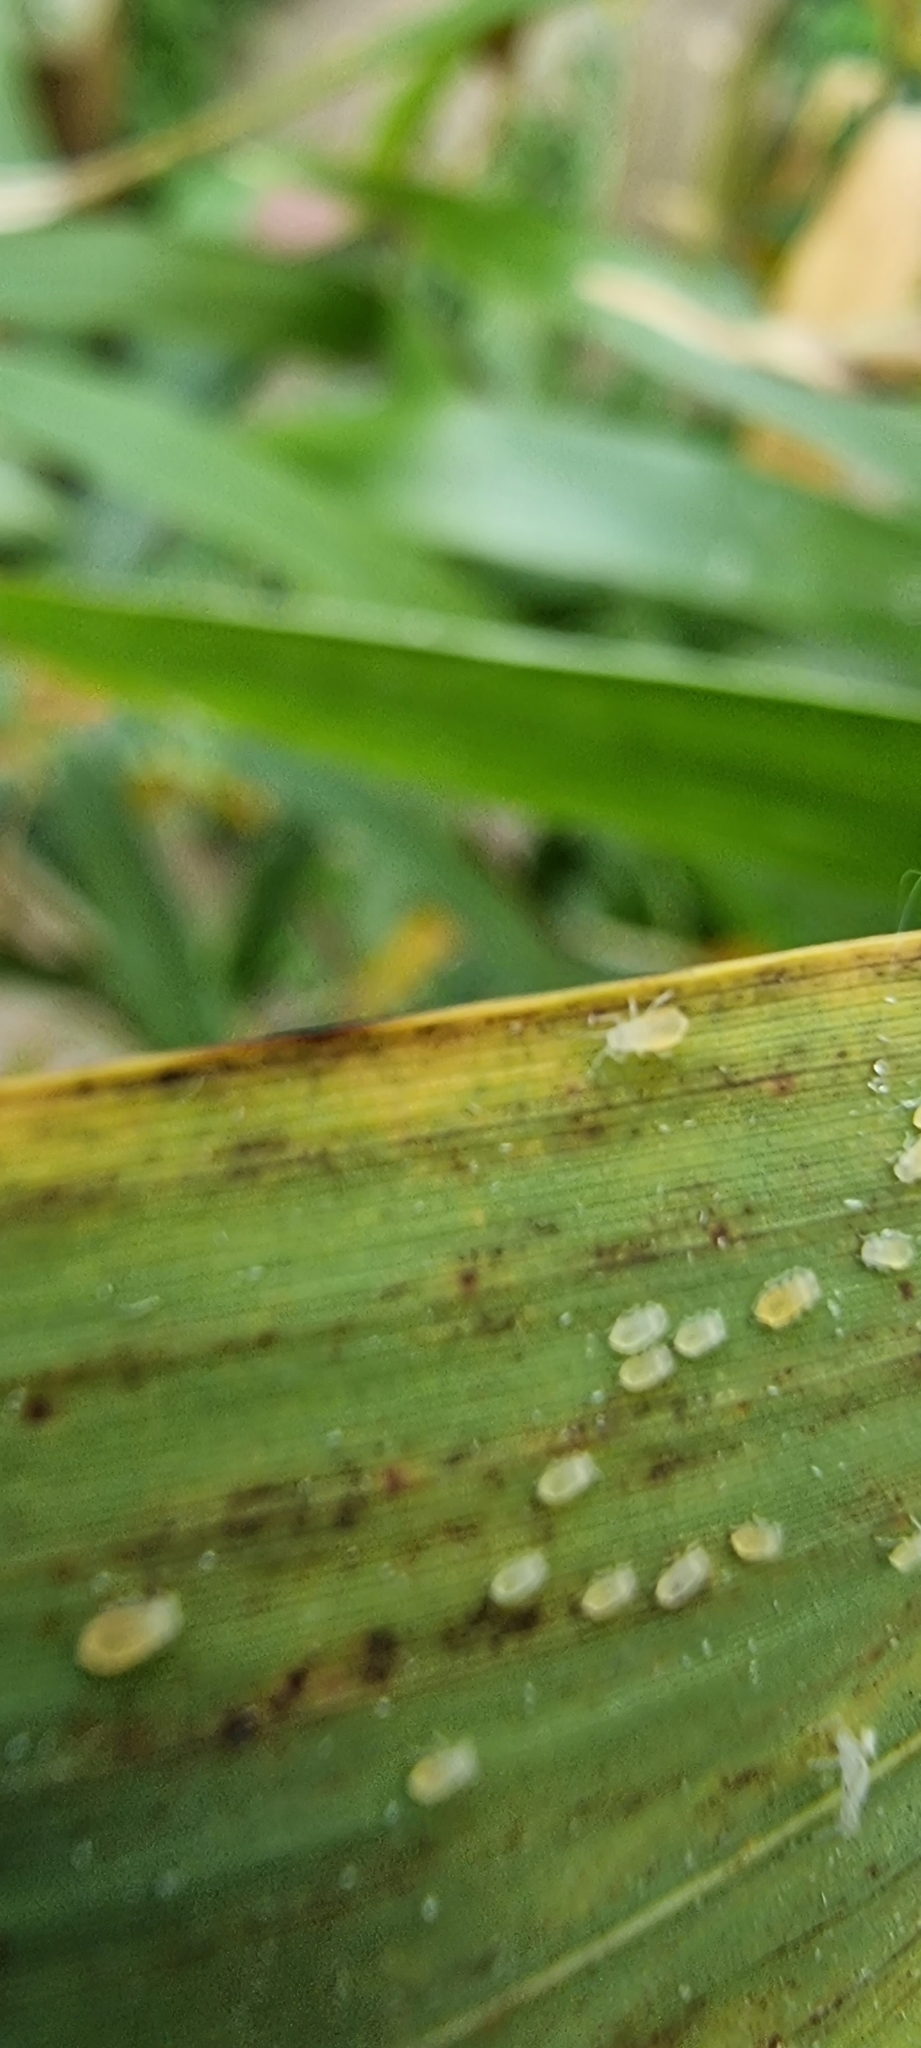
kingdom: Animalia
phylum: Arthropoda
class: Insecta
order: Hemiptera
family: Aphididae
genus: Takecallis
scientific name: Takecallis arundicolens
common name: Aphid
